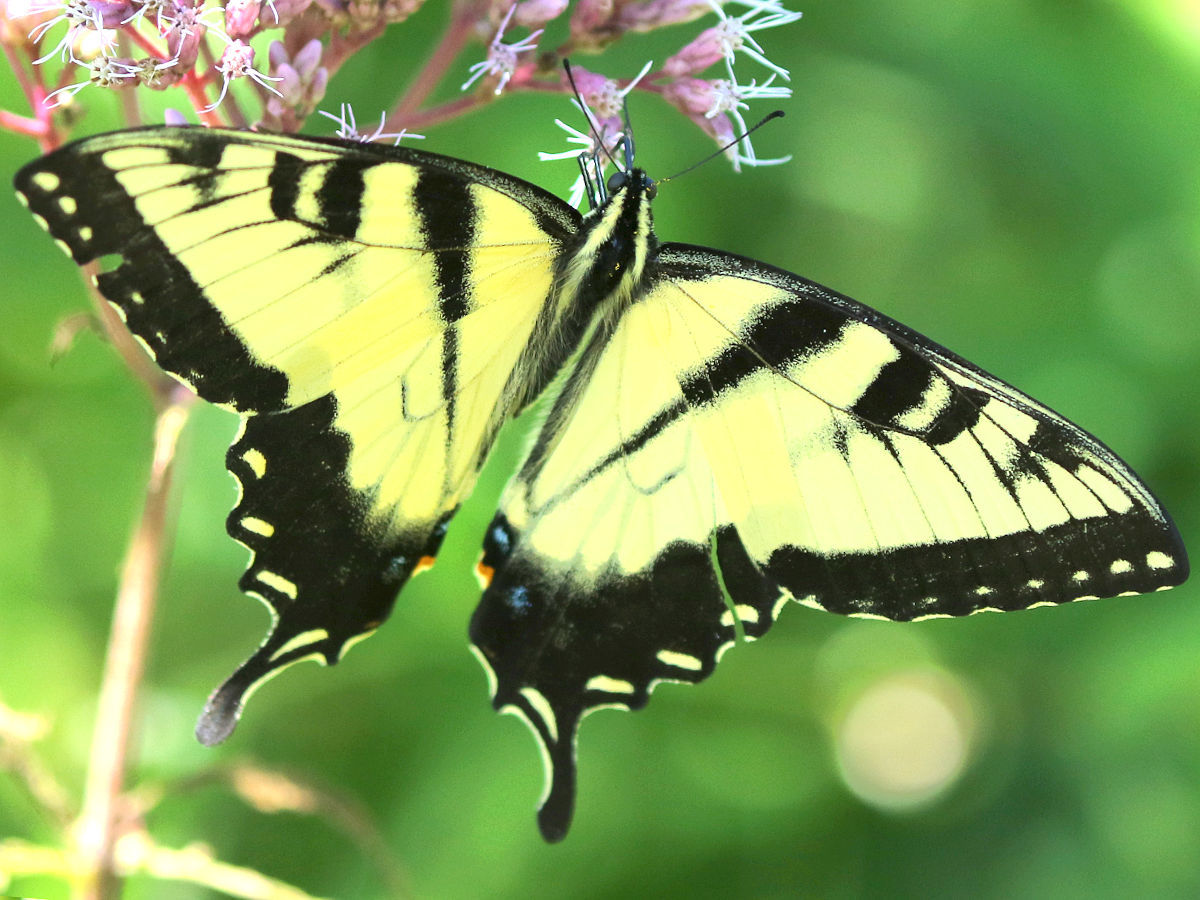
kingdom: Animalia
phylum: Arthropoda
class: Insecta
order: Lepidoptera
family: Papilionidae
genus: Papilio
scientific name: Papilio glaucus
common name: Tiger swallowtail
